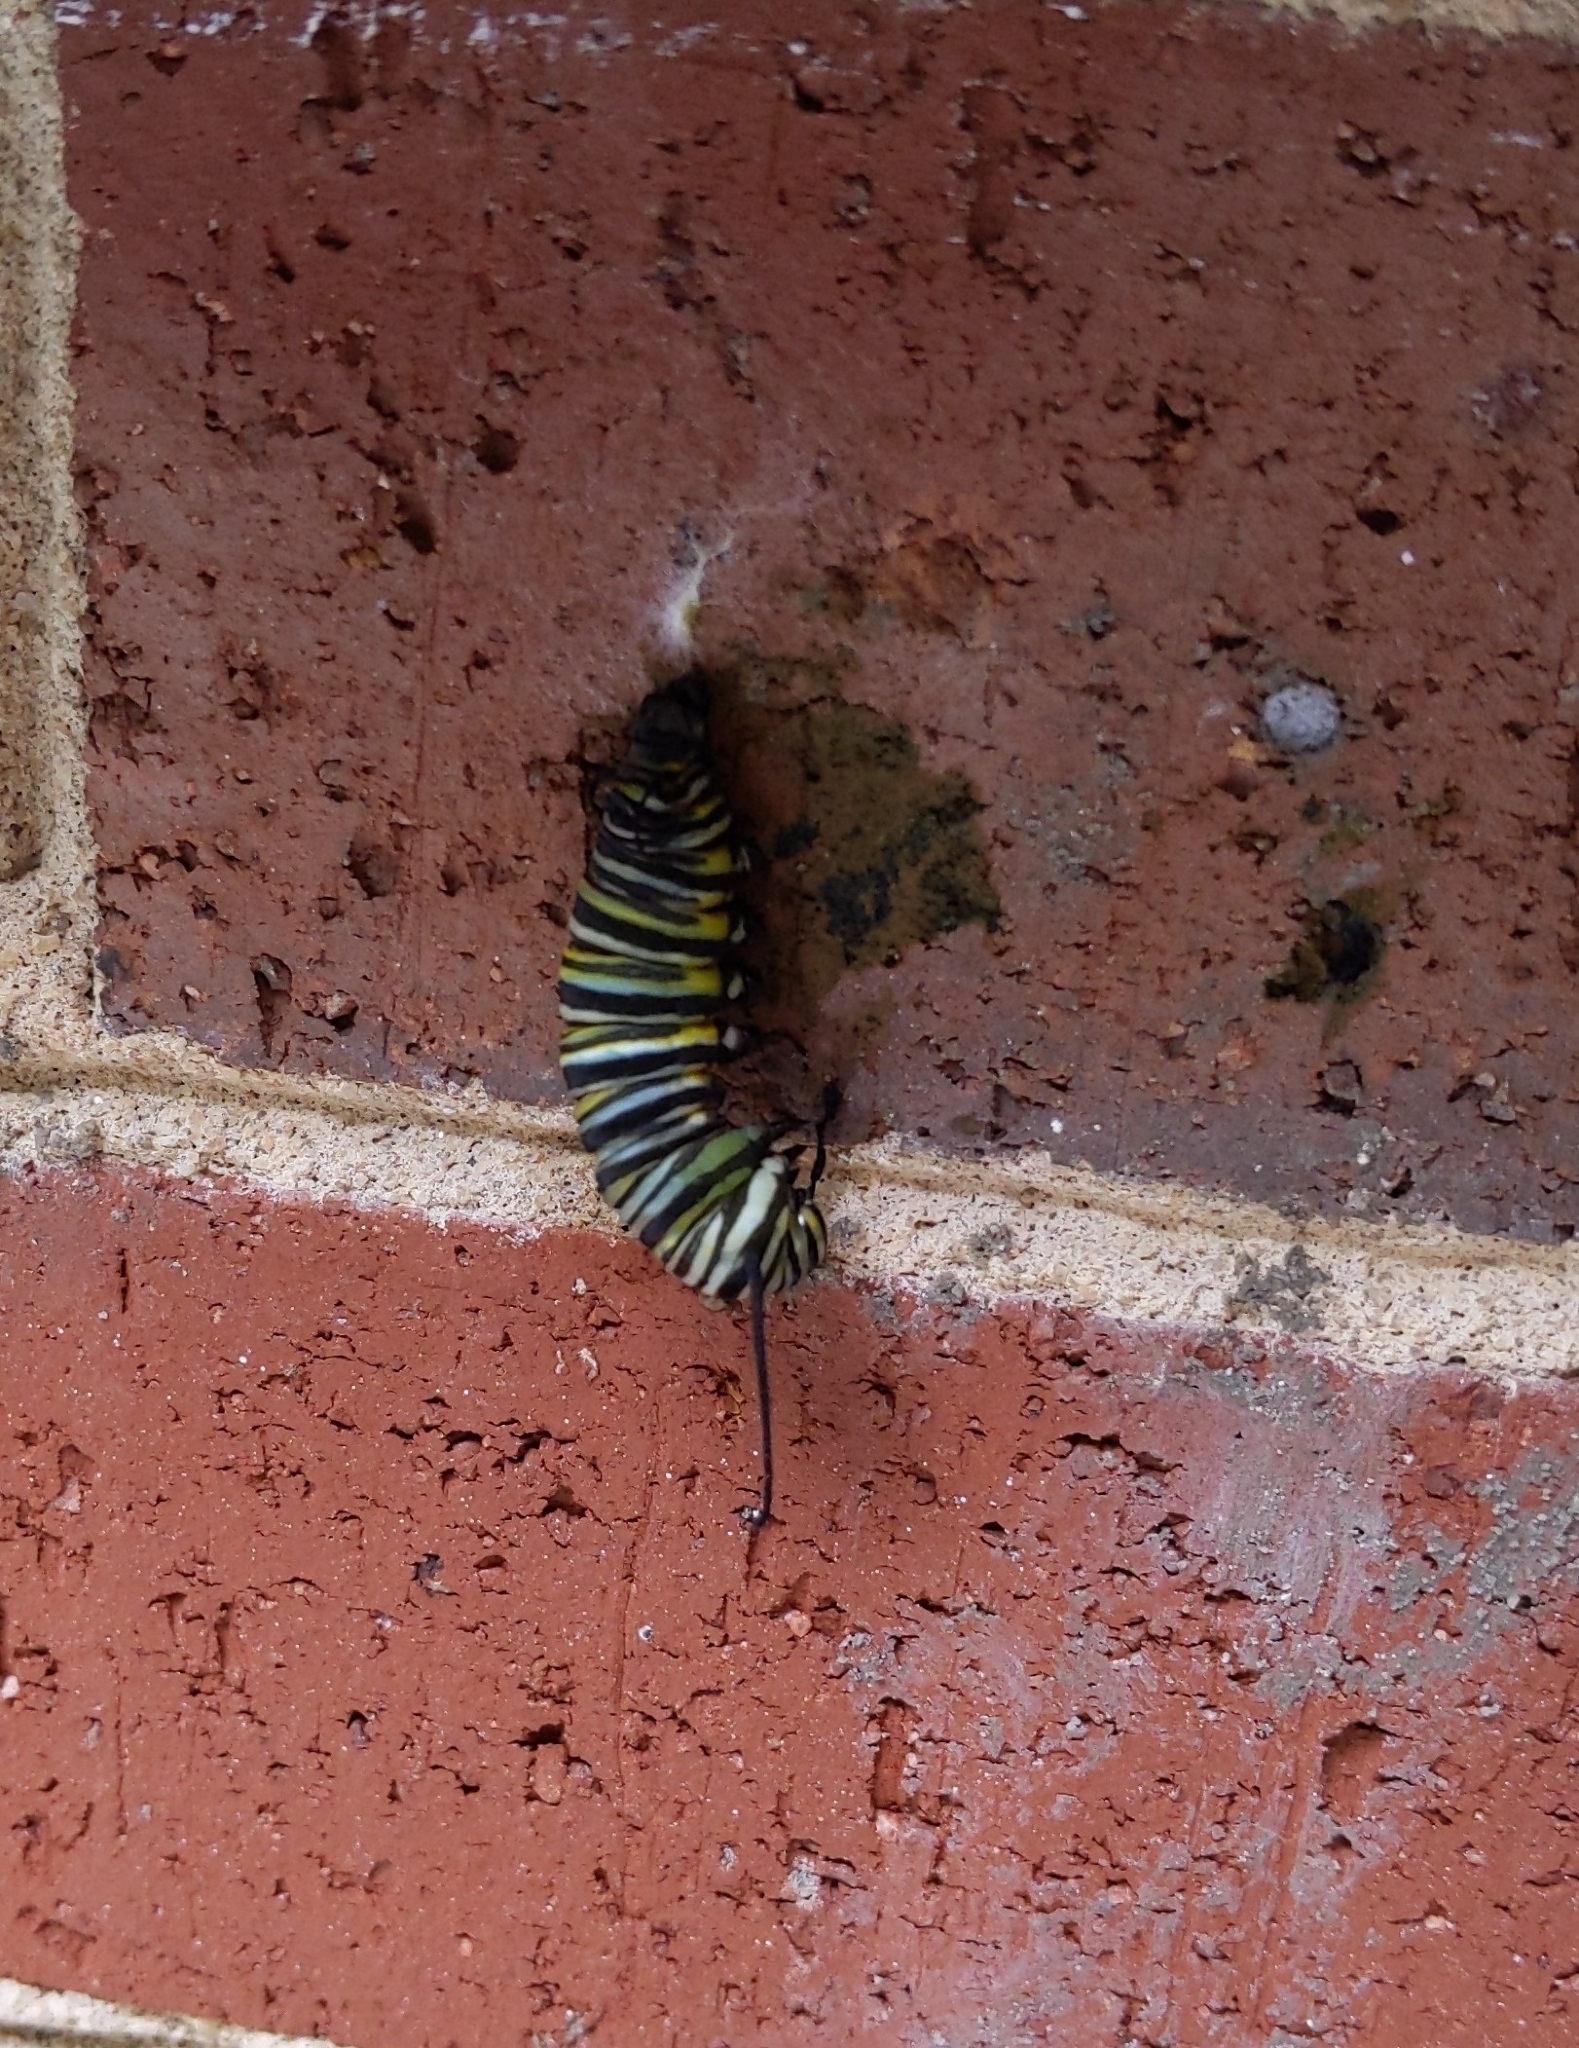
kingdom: Animalia
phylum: Arthropoda
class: Insecta
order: Lepidoptera
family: Nymphalidae
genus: Danaus
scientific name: Danaus plexippus
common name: Monarch
